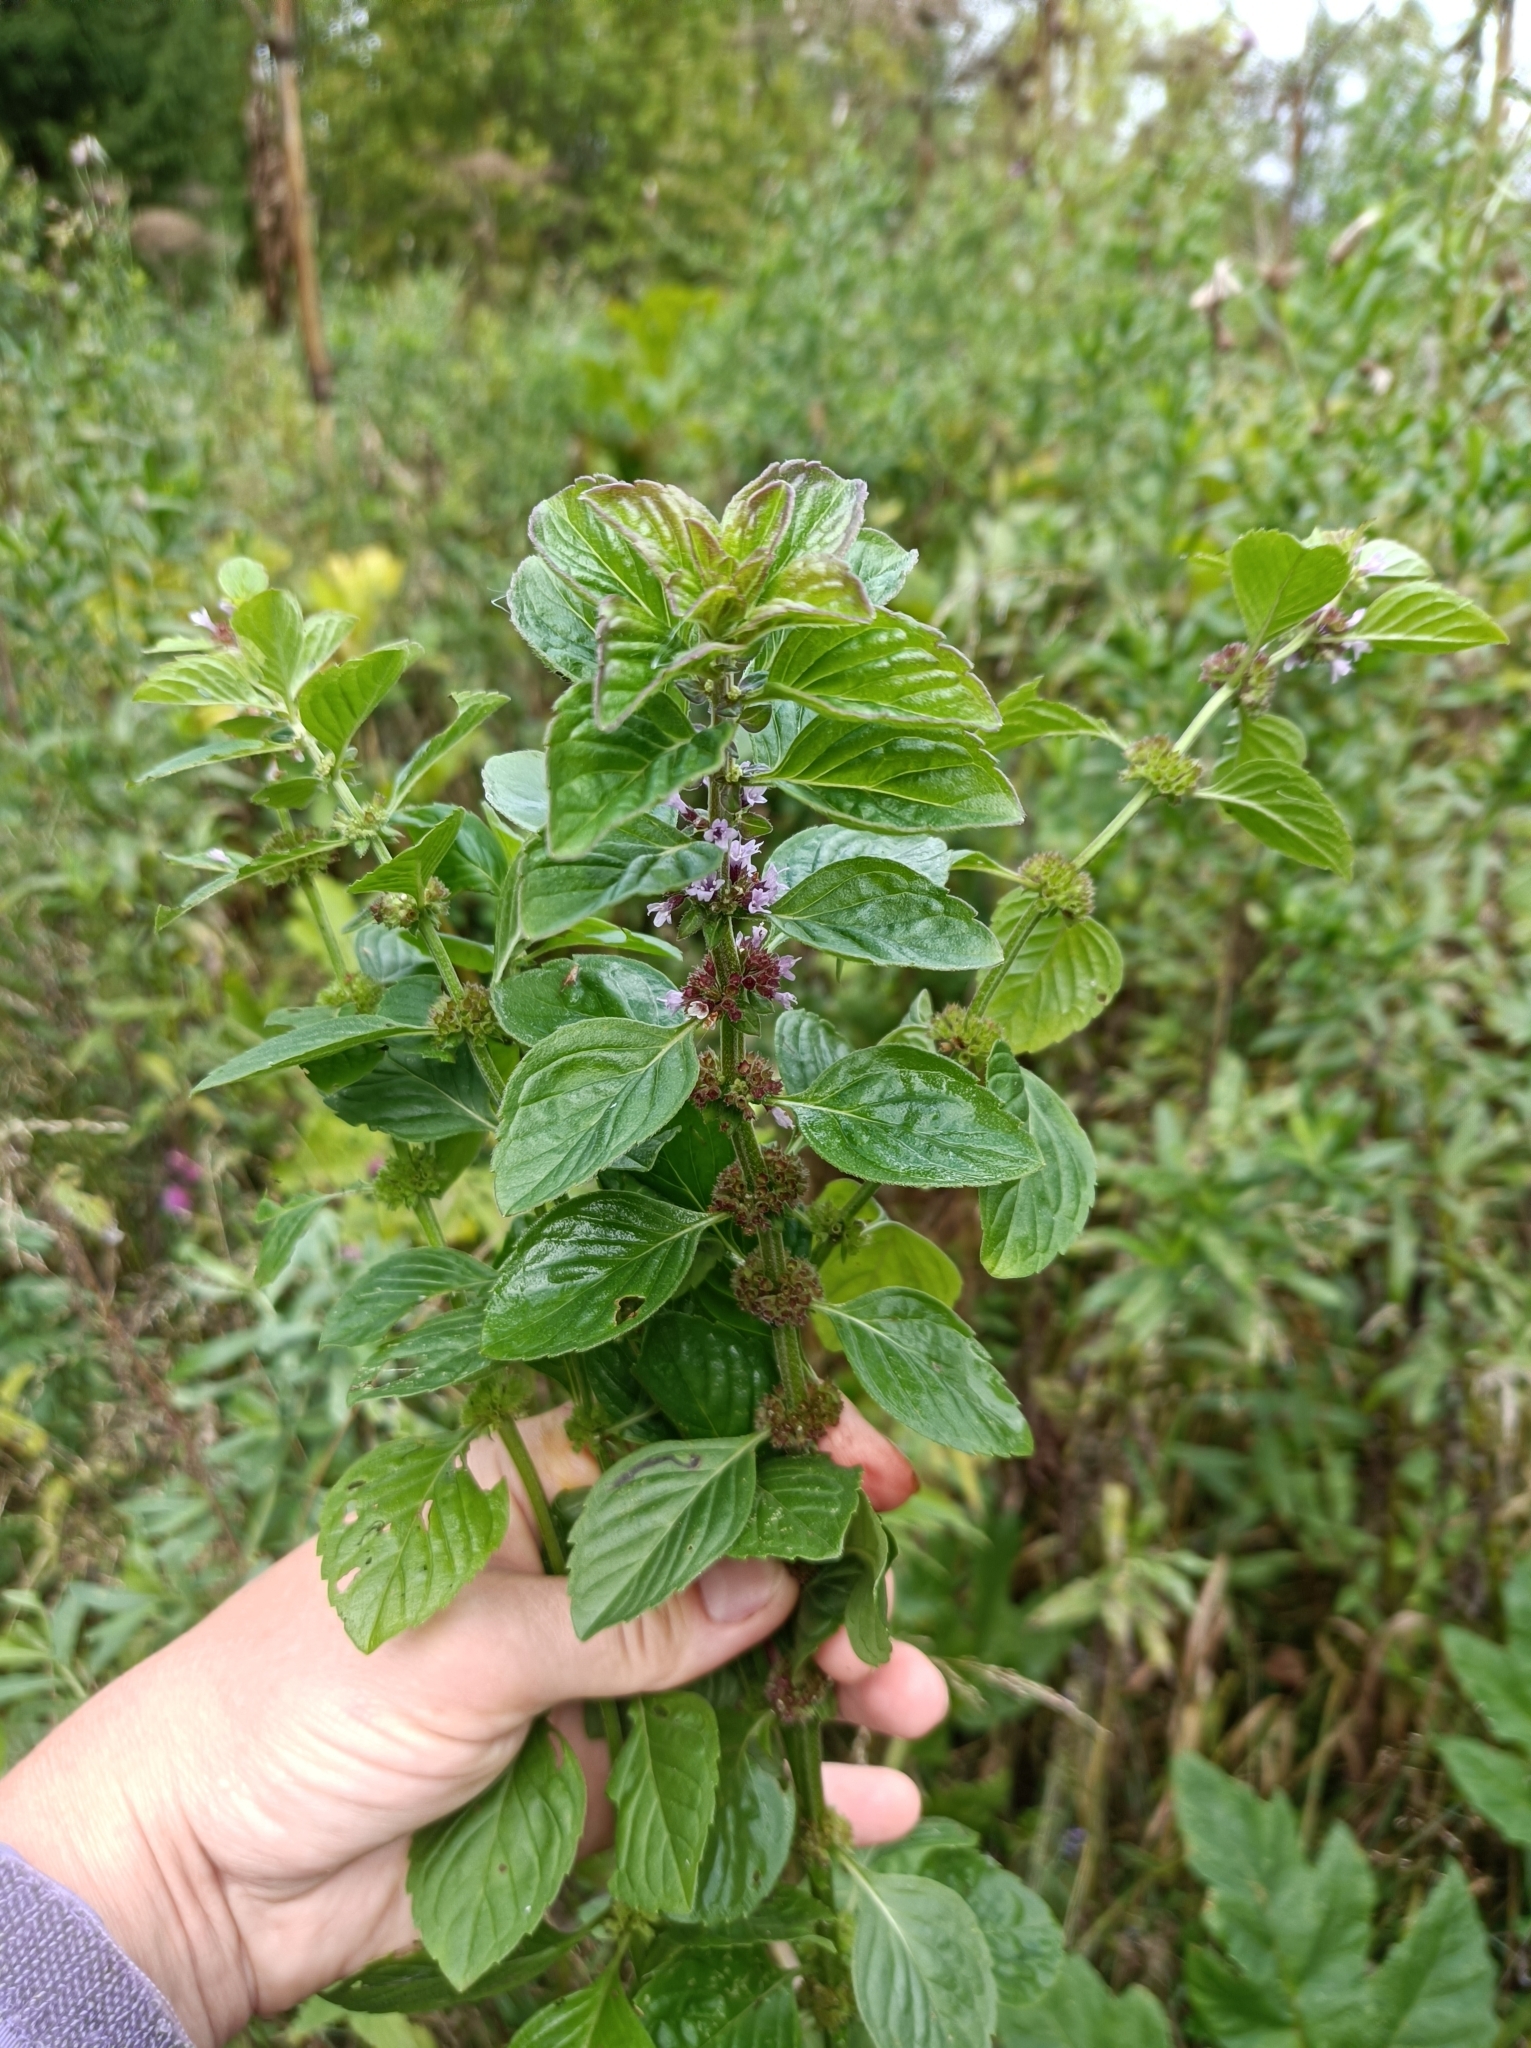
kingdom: Plantae
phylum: Tracheophyta
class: Magnoliopsida
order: Lamiales
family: Lamiaceae
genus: Mentha
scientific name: Mentha arvensis
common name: Corn mint
